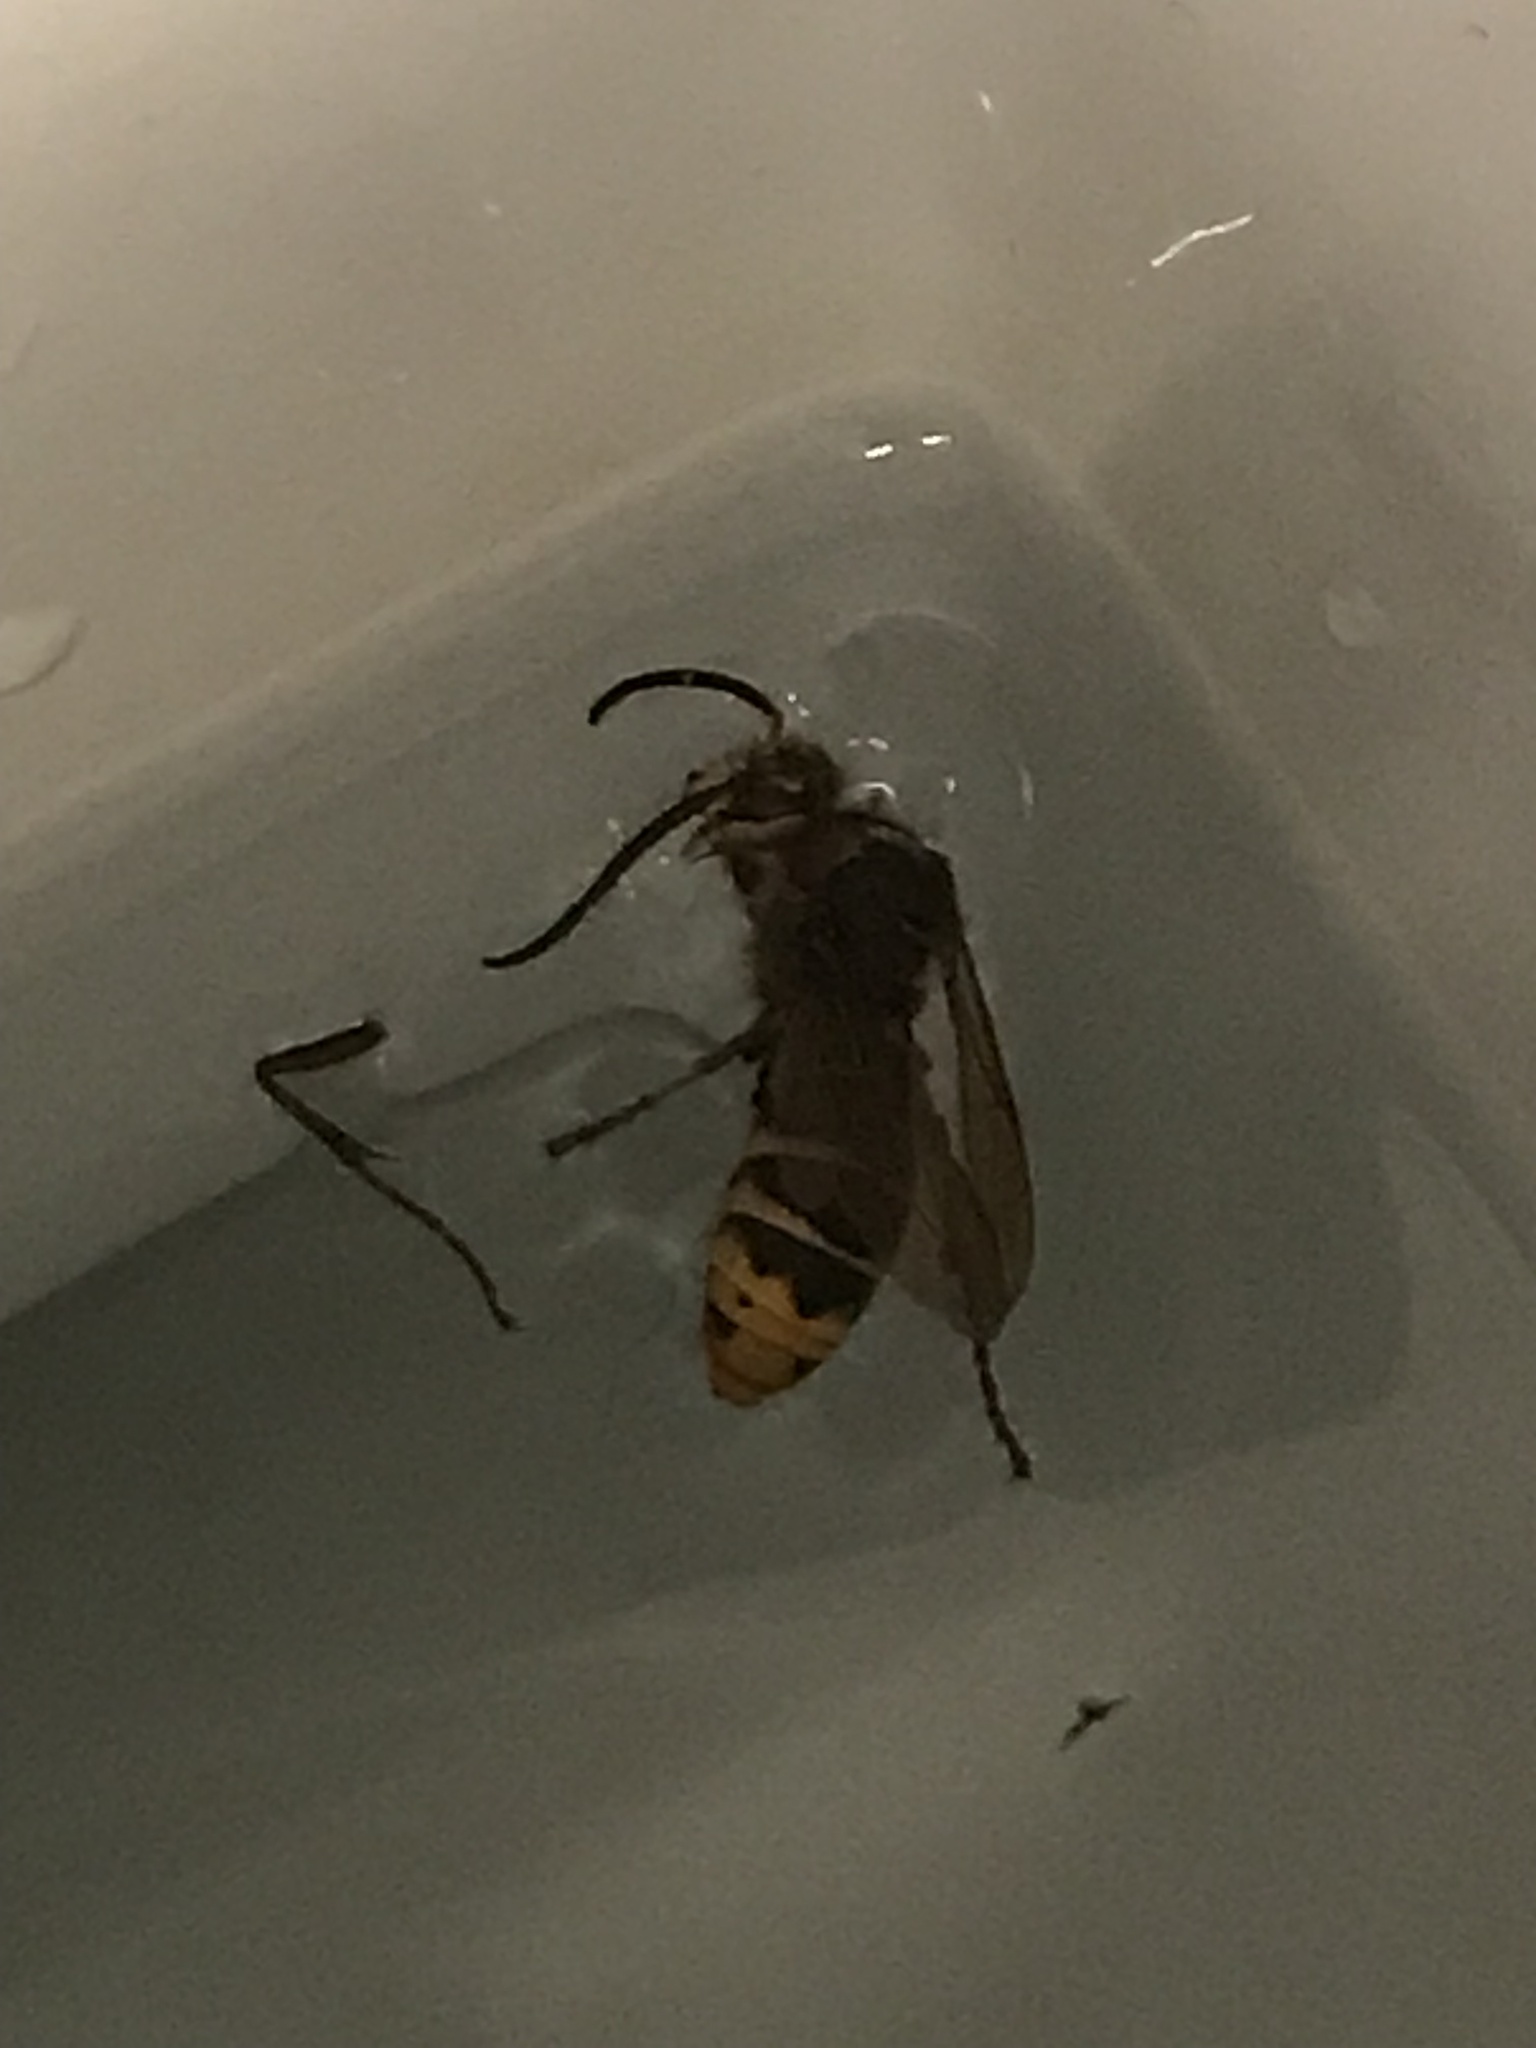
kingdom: Animalia
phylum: Arthropoda
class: Insecta
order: Hymenoptera
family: Vespidae
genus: Vespa
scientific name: Vespa crabro
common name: Hornet
